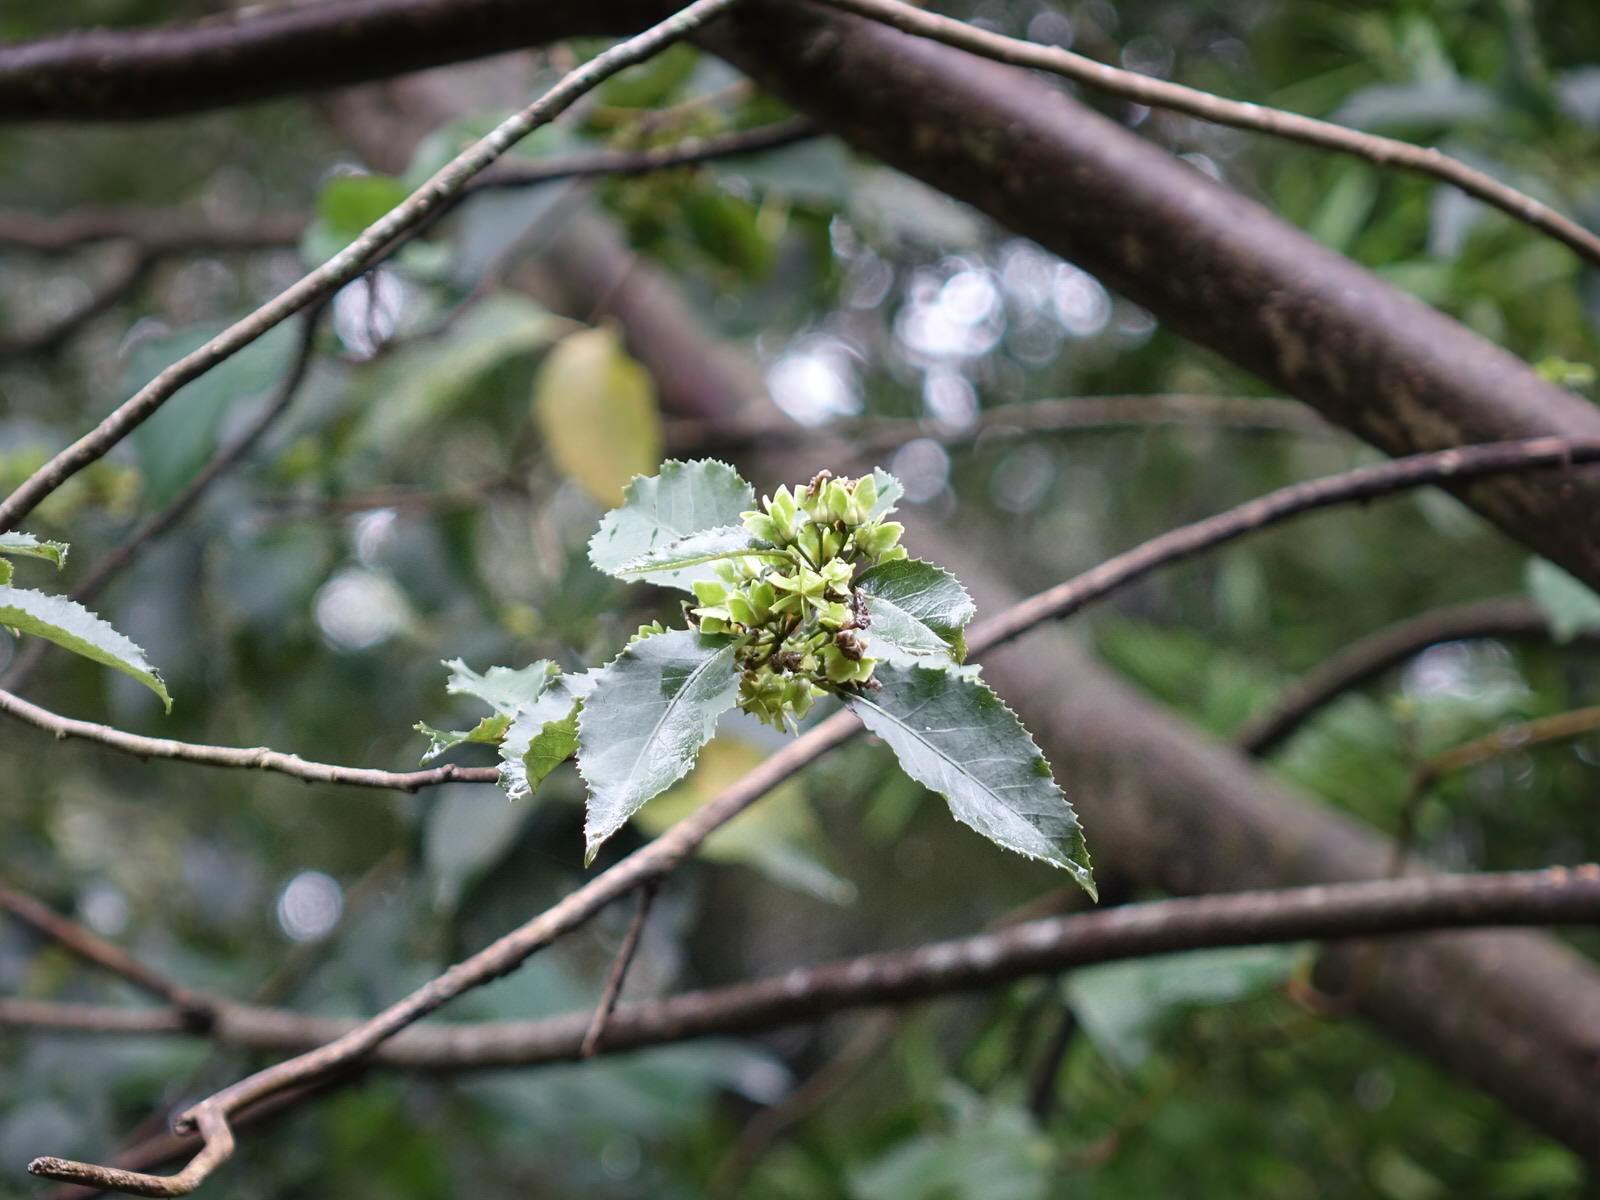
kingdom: Animalia
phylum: Chordata
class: Aves
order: Passeriformes
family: Zosteropidae
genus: Zosterops
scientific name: Zosterops lateralis
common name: Silvereye
